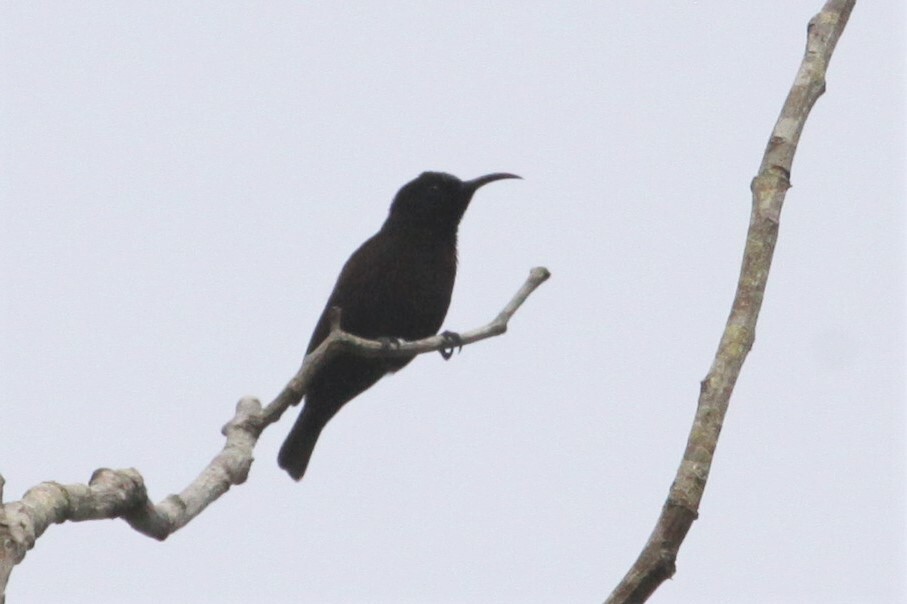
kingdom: Animalia
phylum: Chordata
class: Aves
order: Passeriformes
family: Nectariniidae
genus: Chalcomitra
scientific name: Chalcomitra amethystina
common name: Amethyst sunbird
